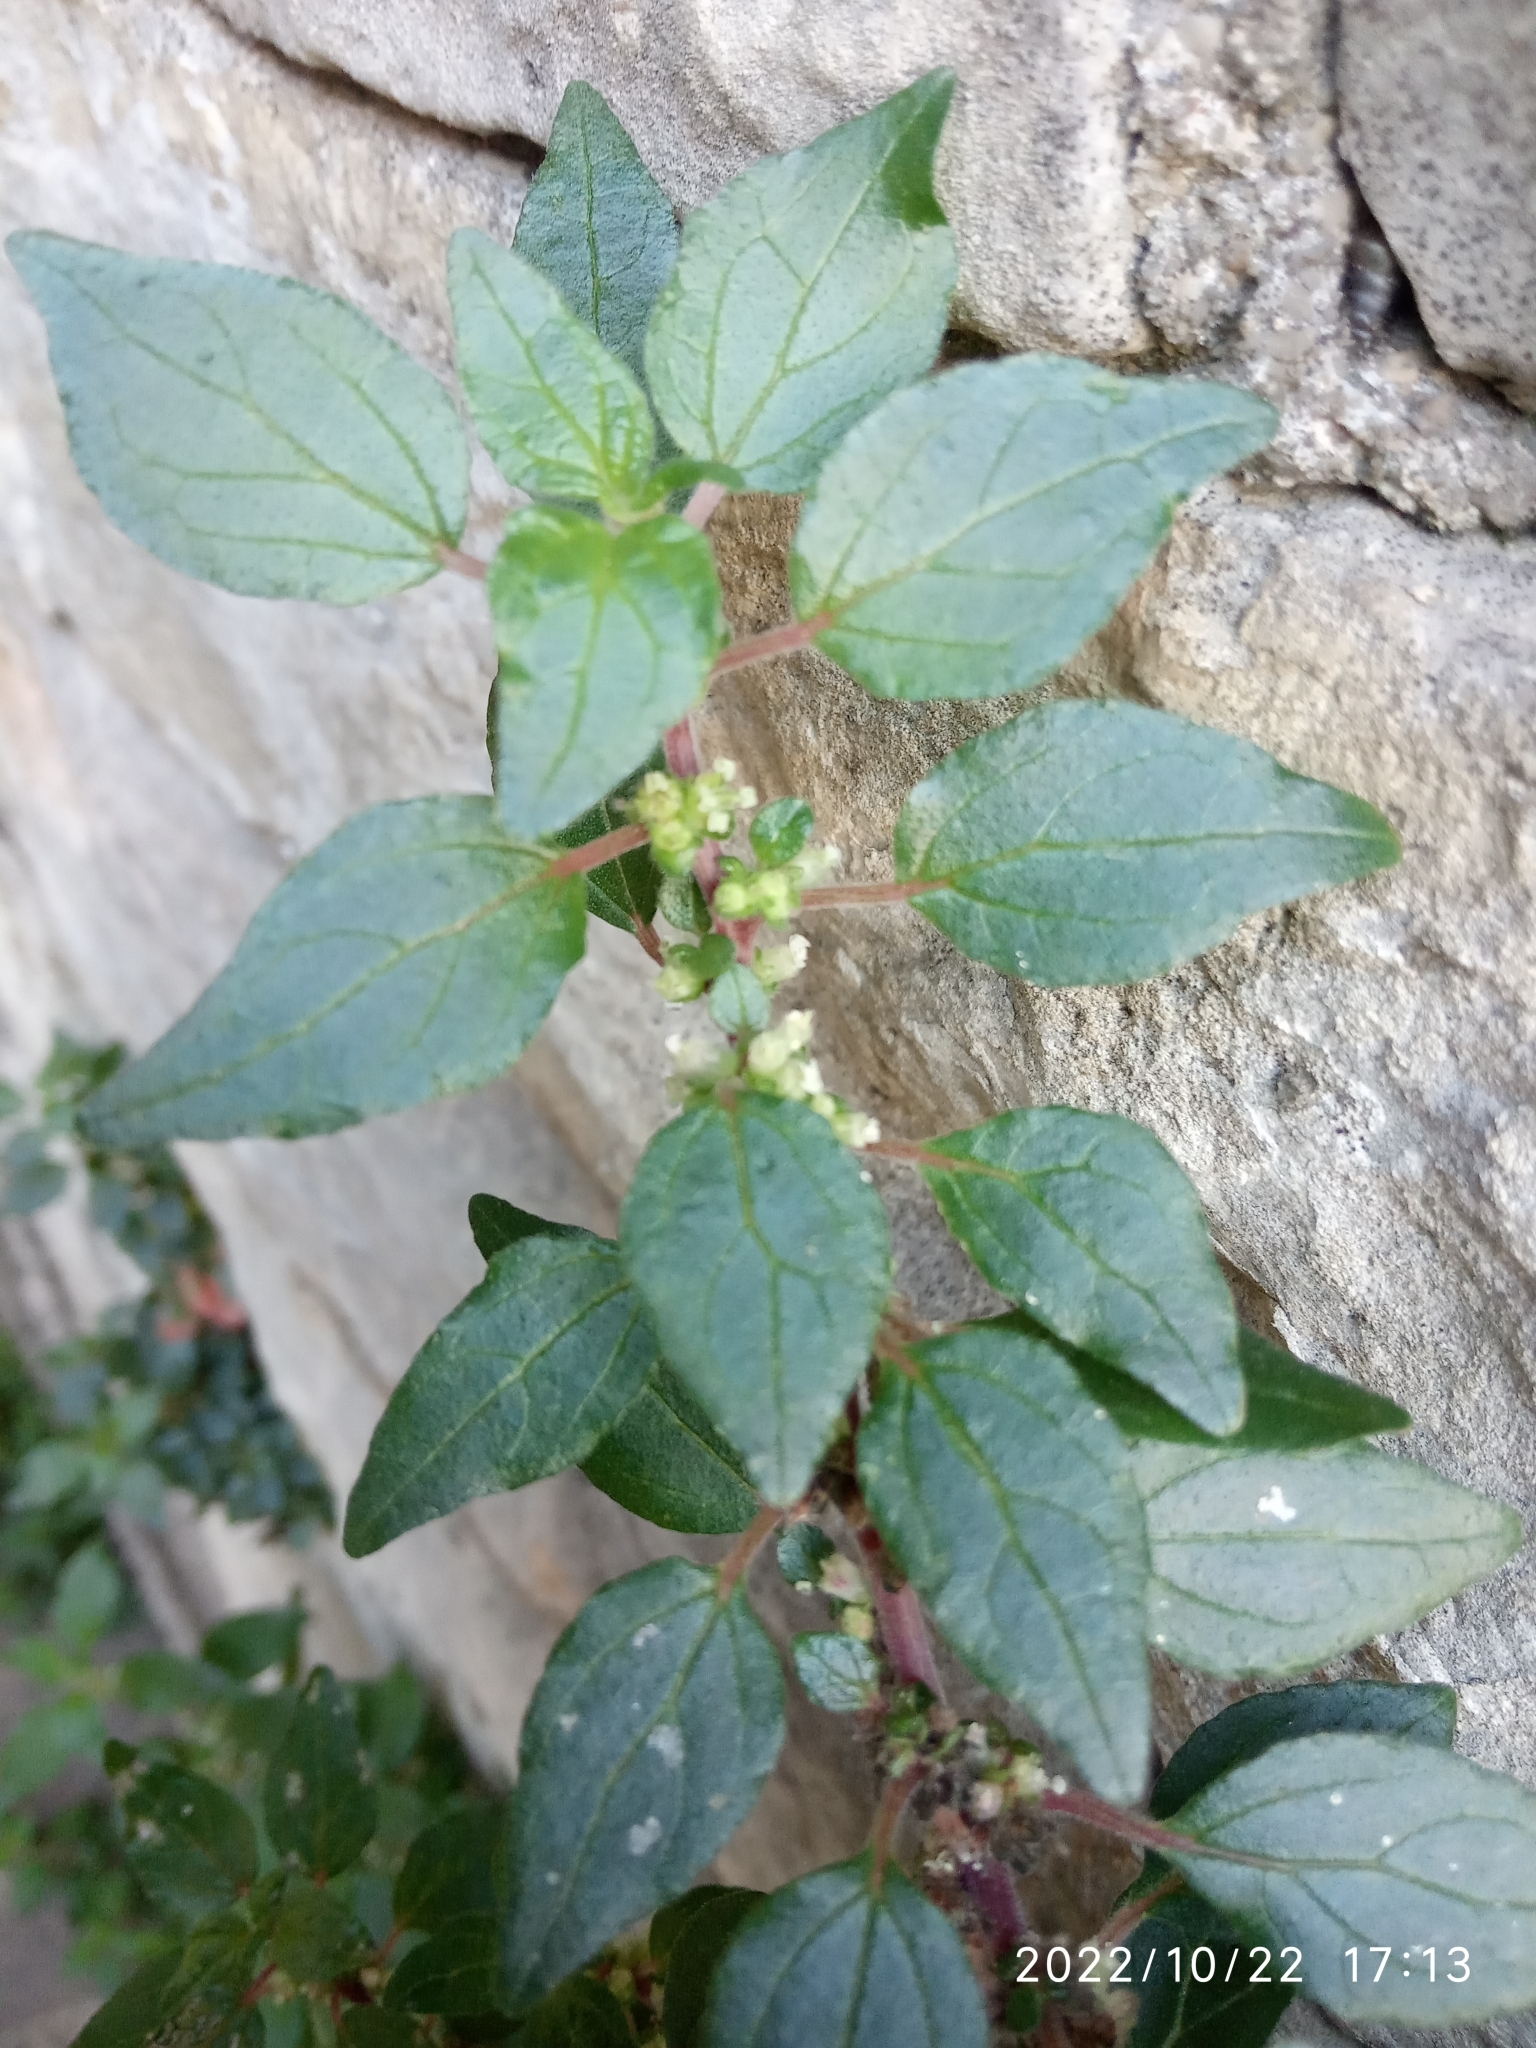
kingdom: Plantae
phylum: Tracheophyta
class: Magnoliopsida
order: Rosales
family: Urticaceae
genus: Parietaria
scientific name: Parietaria judaica
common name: Pellitory-of-the-wall
